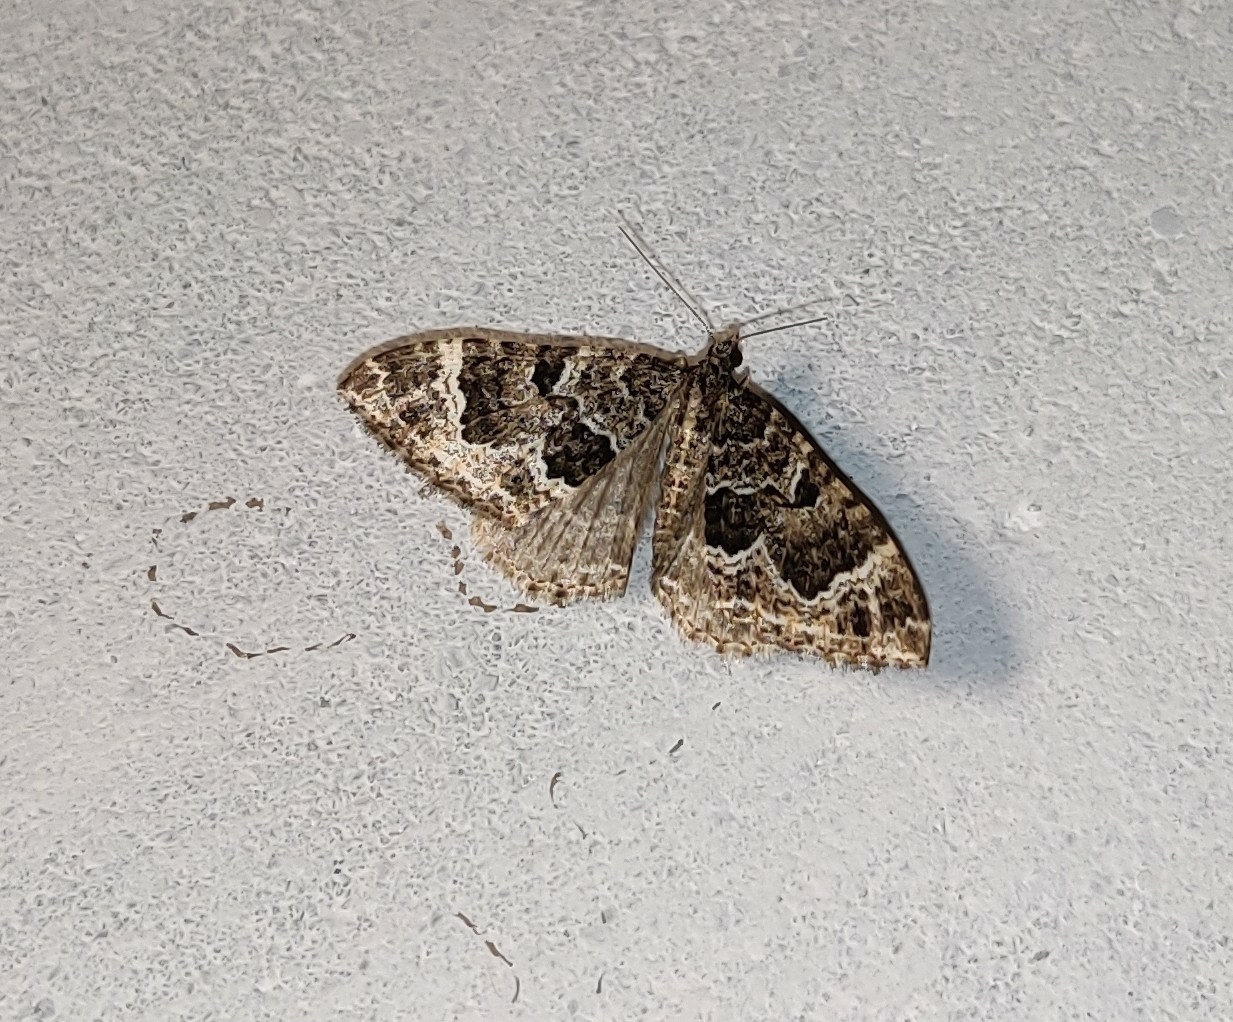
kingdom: Animalia
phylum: Arthropoda
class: Insecta
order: Lepidoptera
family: Geometridae
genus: Colostygia
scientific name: Colostygia albigirata
